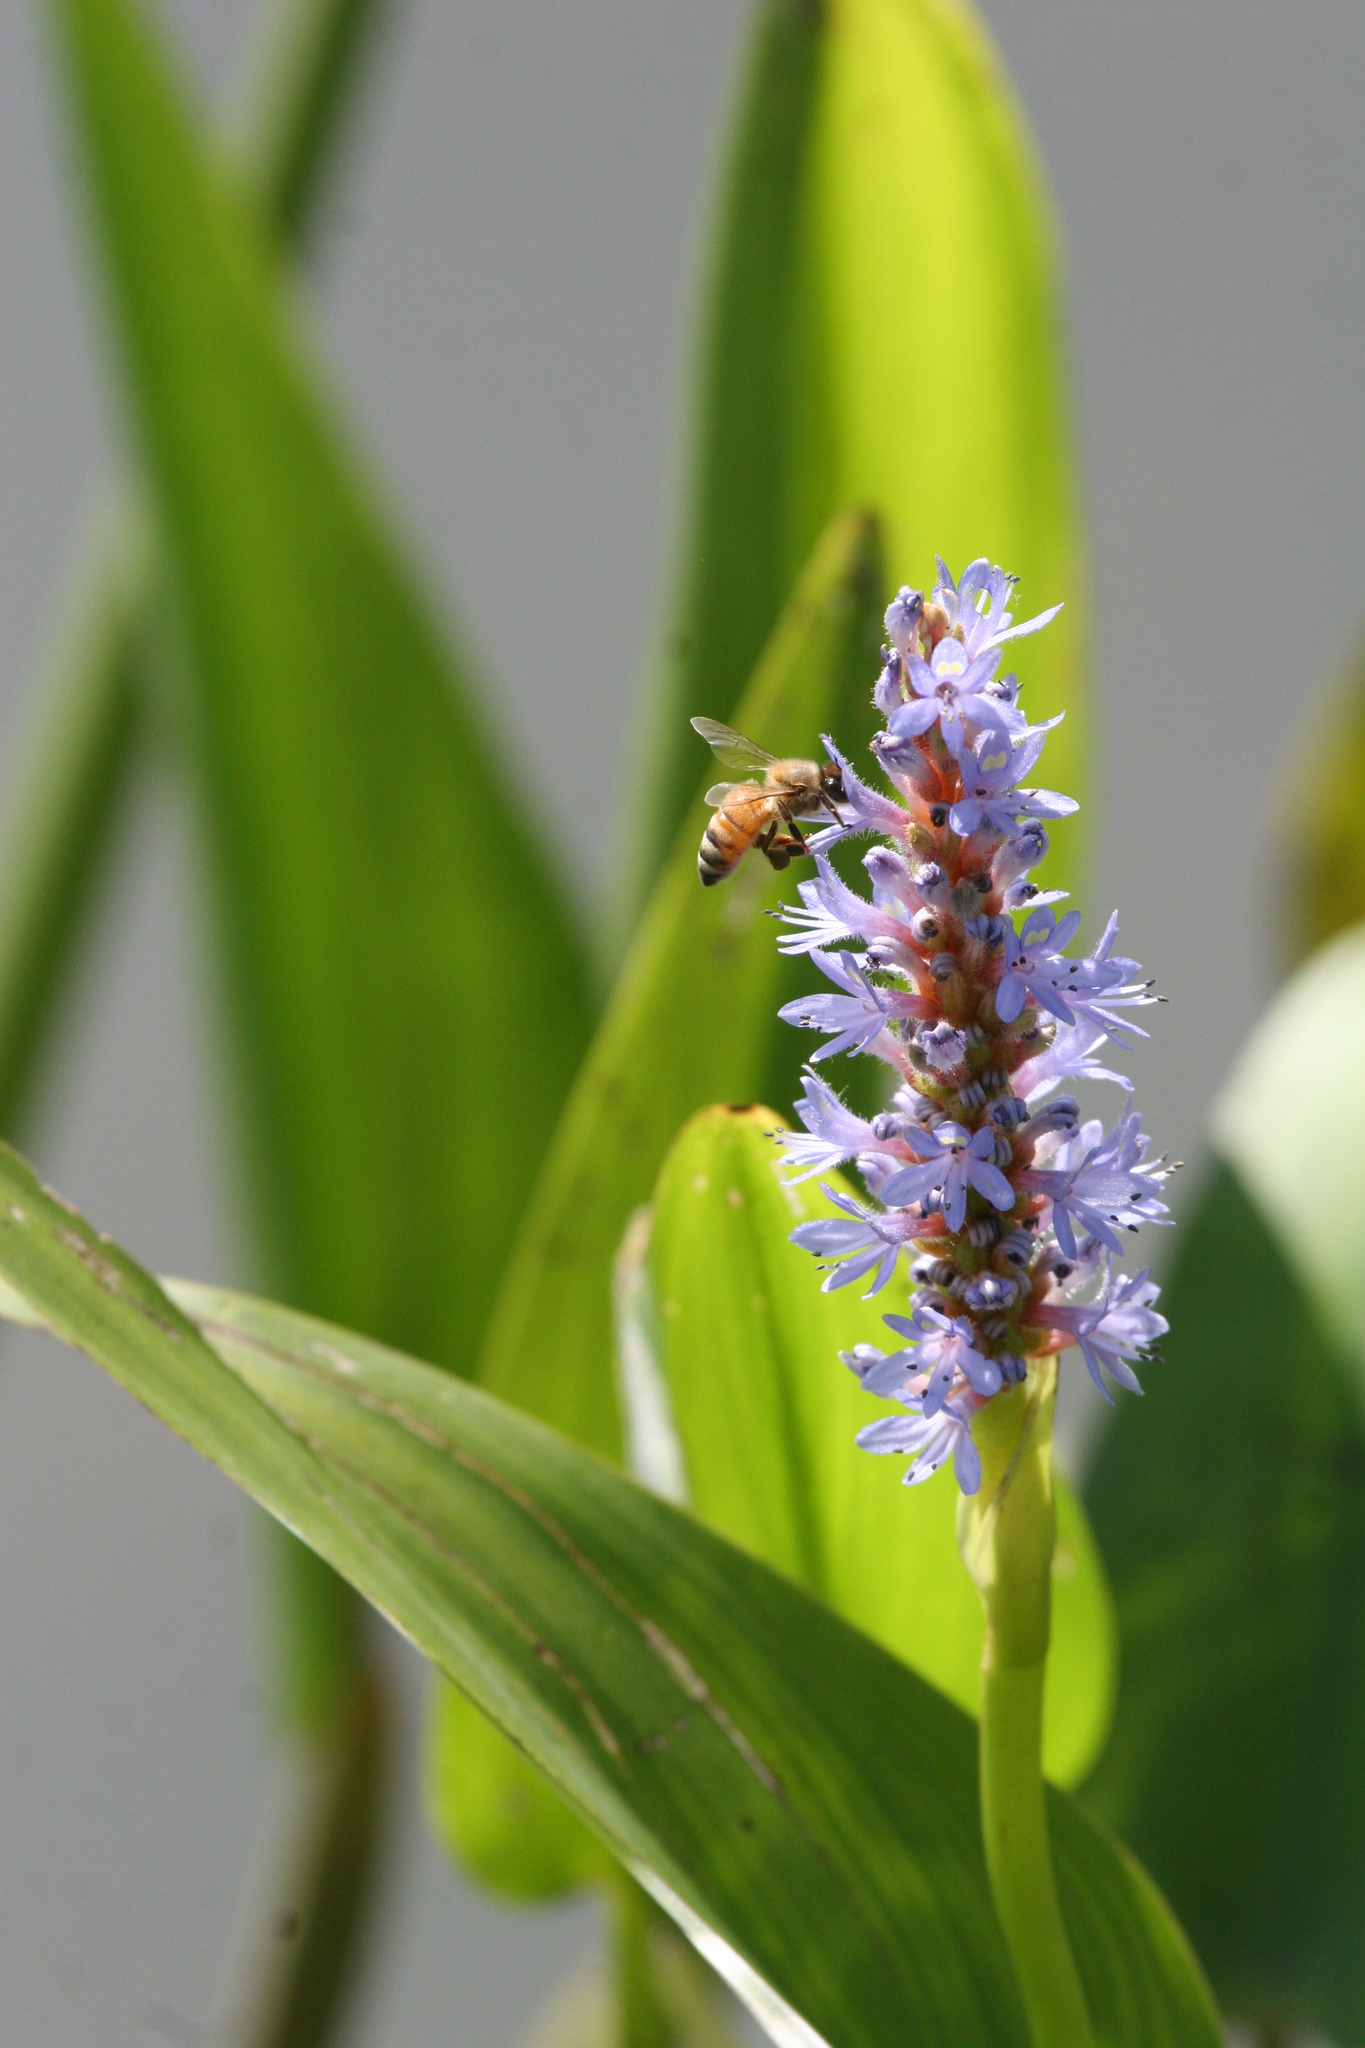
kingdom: Plantae
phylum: Tracheophyta
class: Liliopsida
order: Commelinales
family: Pontederiaceae
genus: Pontederia
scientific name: Pontederia cordata
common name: Pickerelweed
